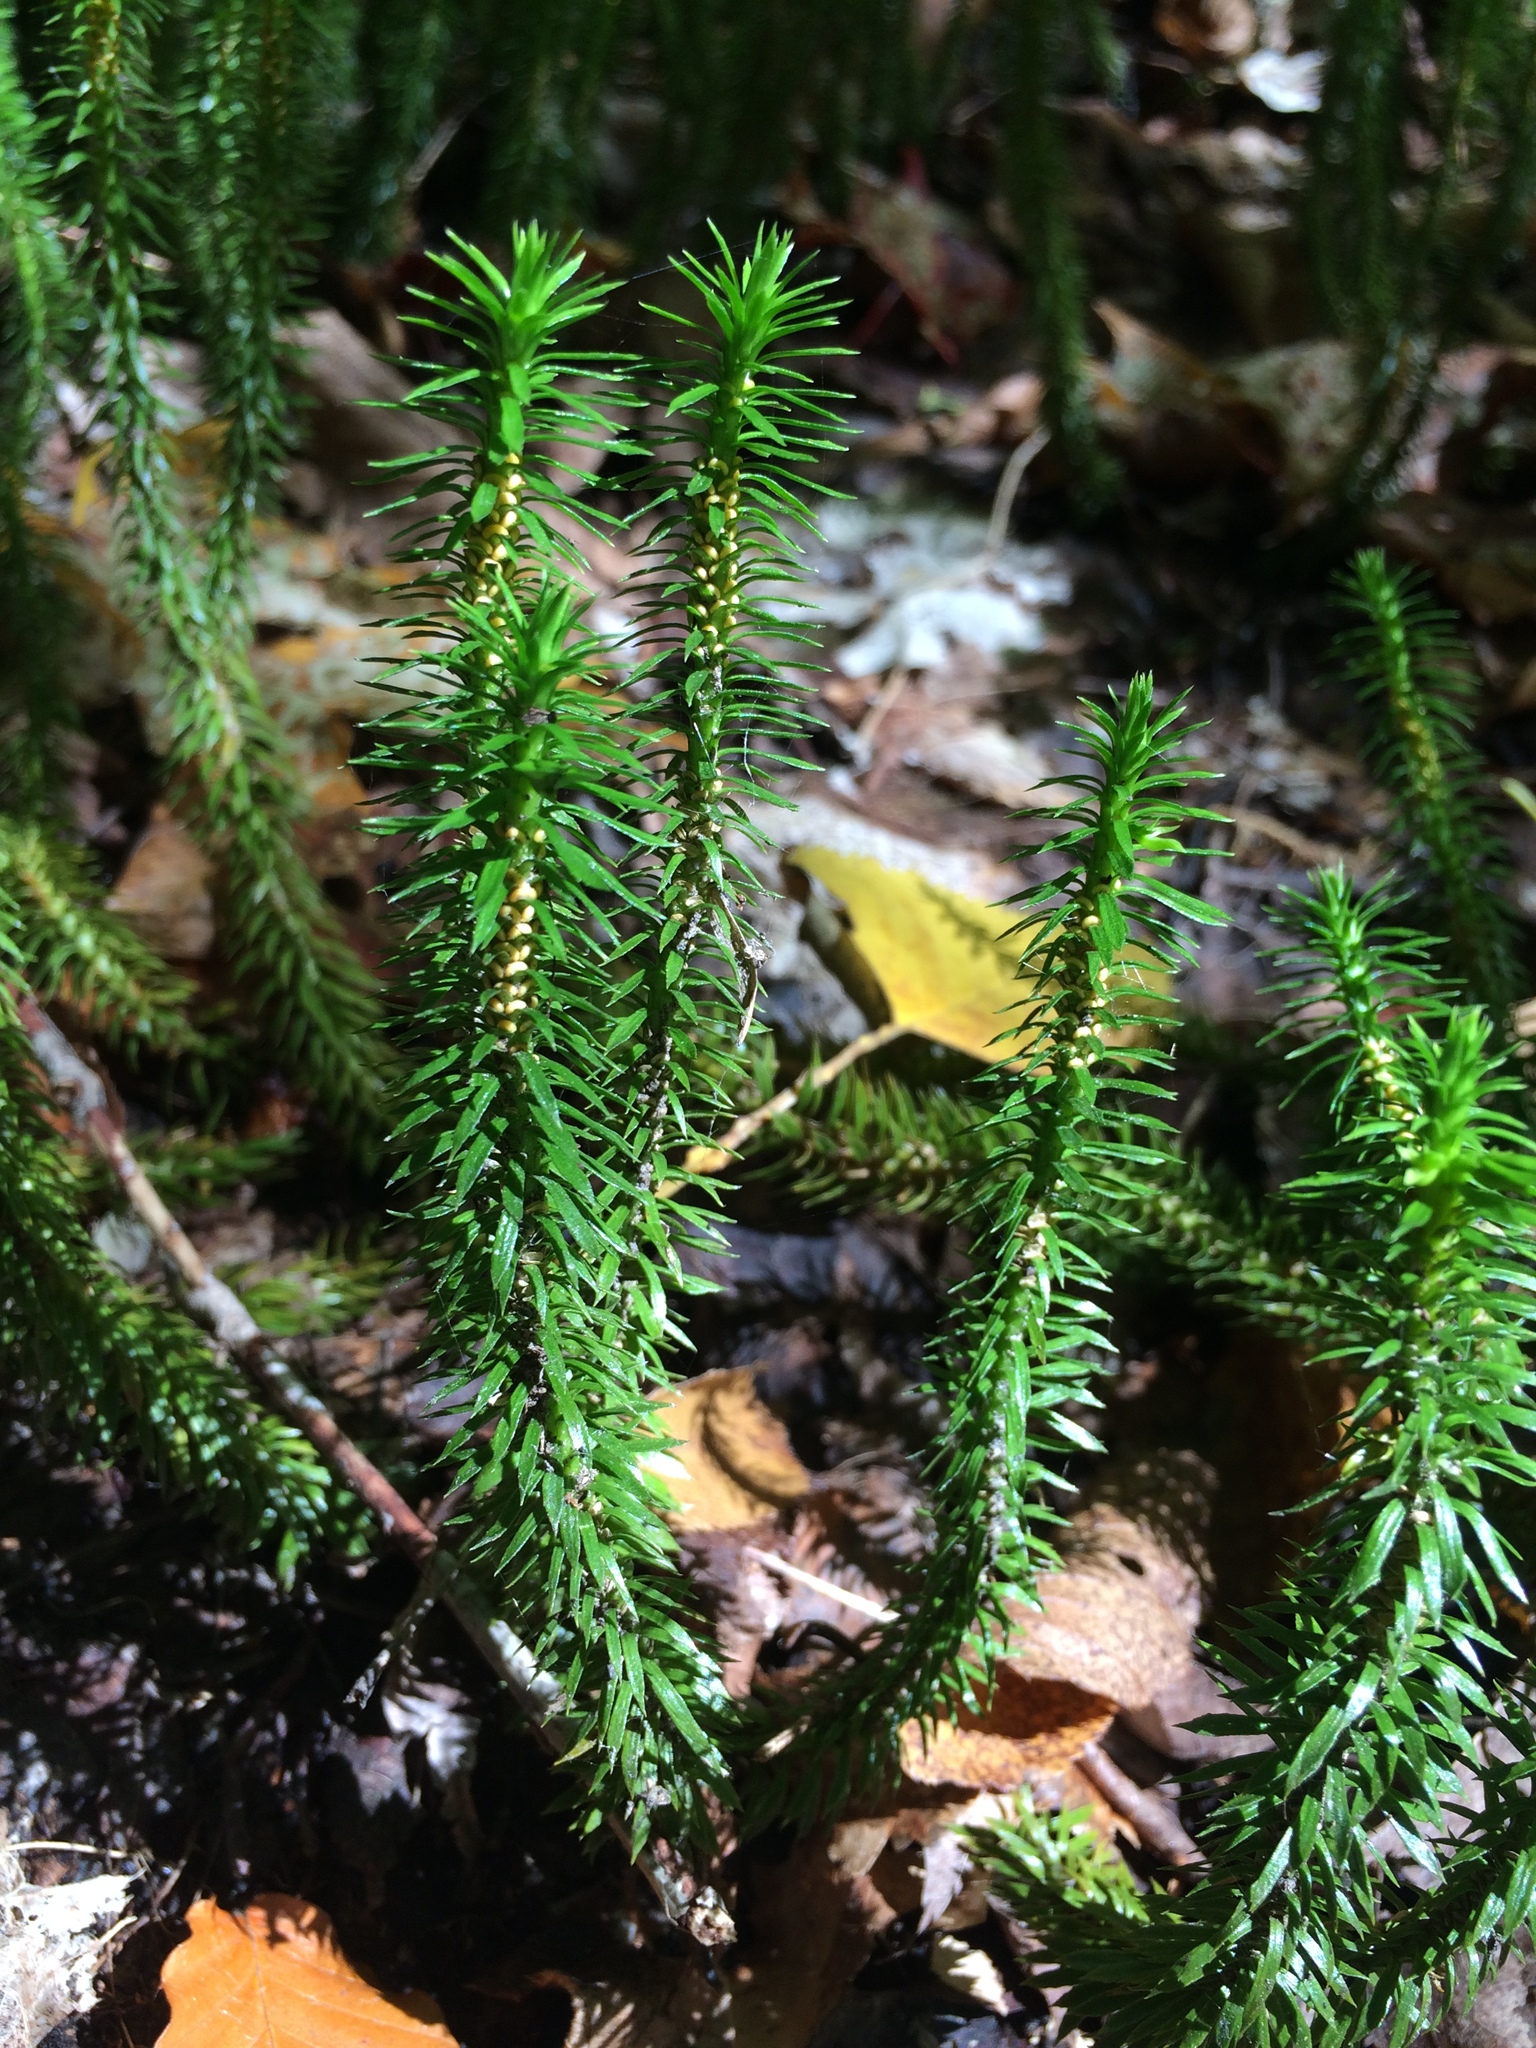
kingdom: Plantae
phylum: Tracheophyta
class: Lycopodiopsida
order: Lycopodiales
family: Lycopodiaceae
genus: Huperzia
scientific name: Huperzia lucidula
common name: Shining clubmoss
